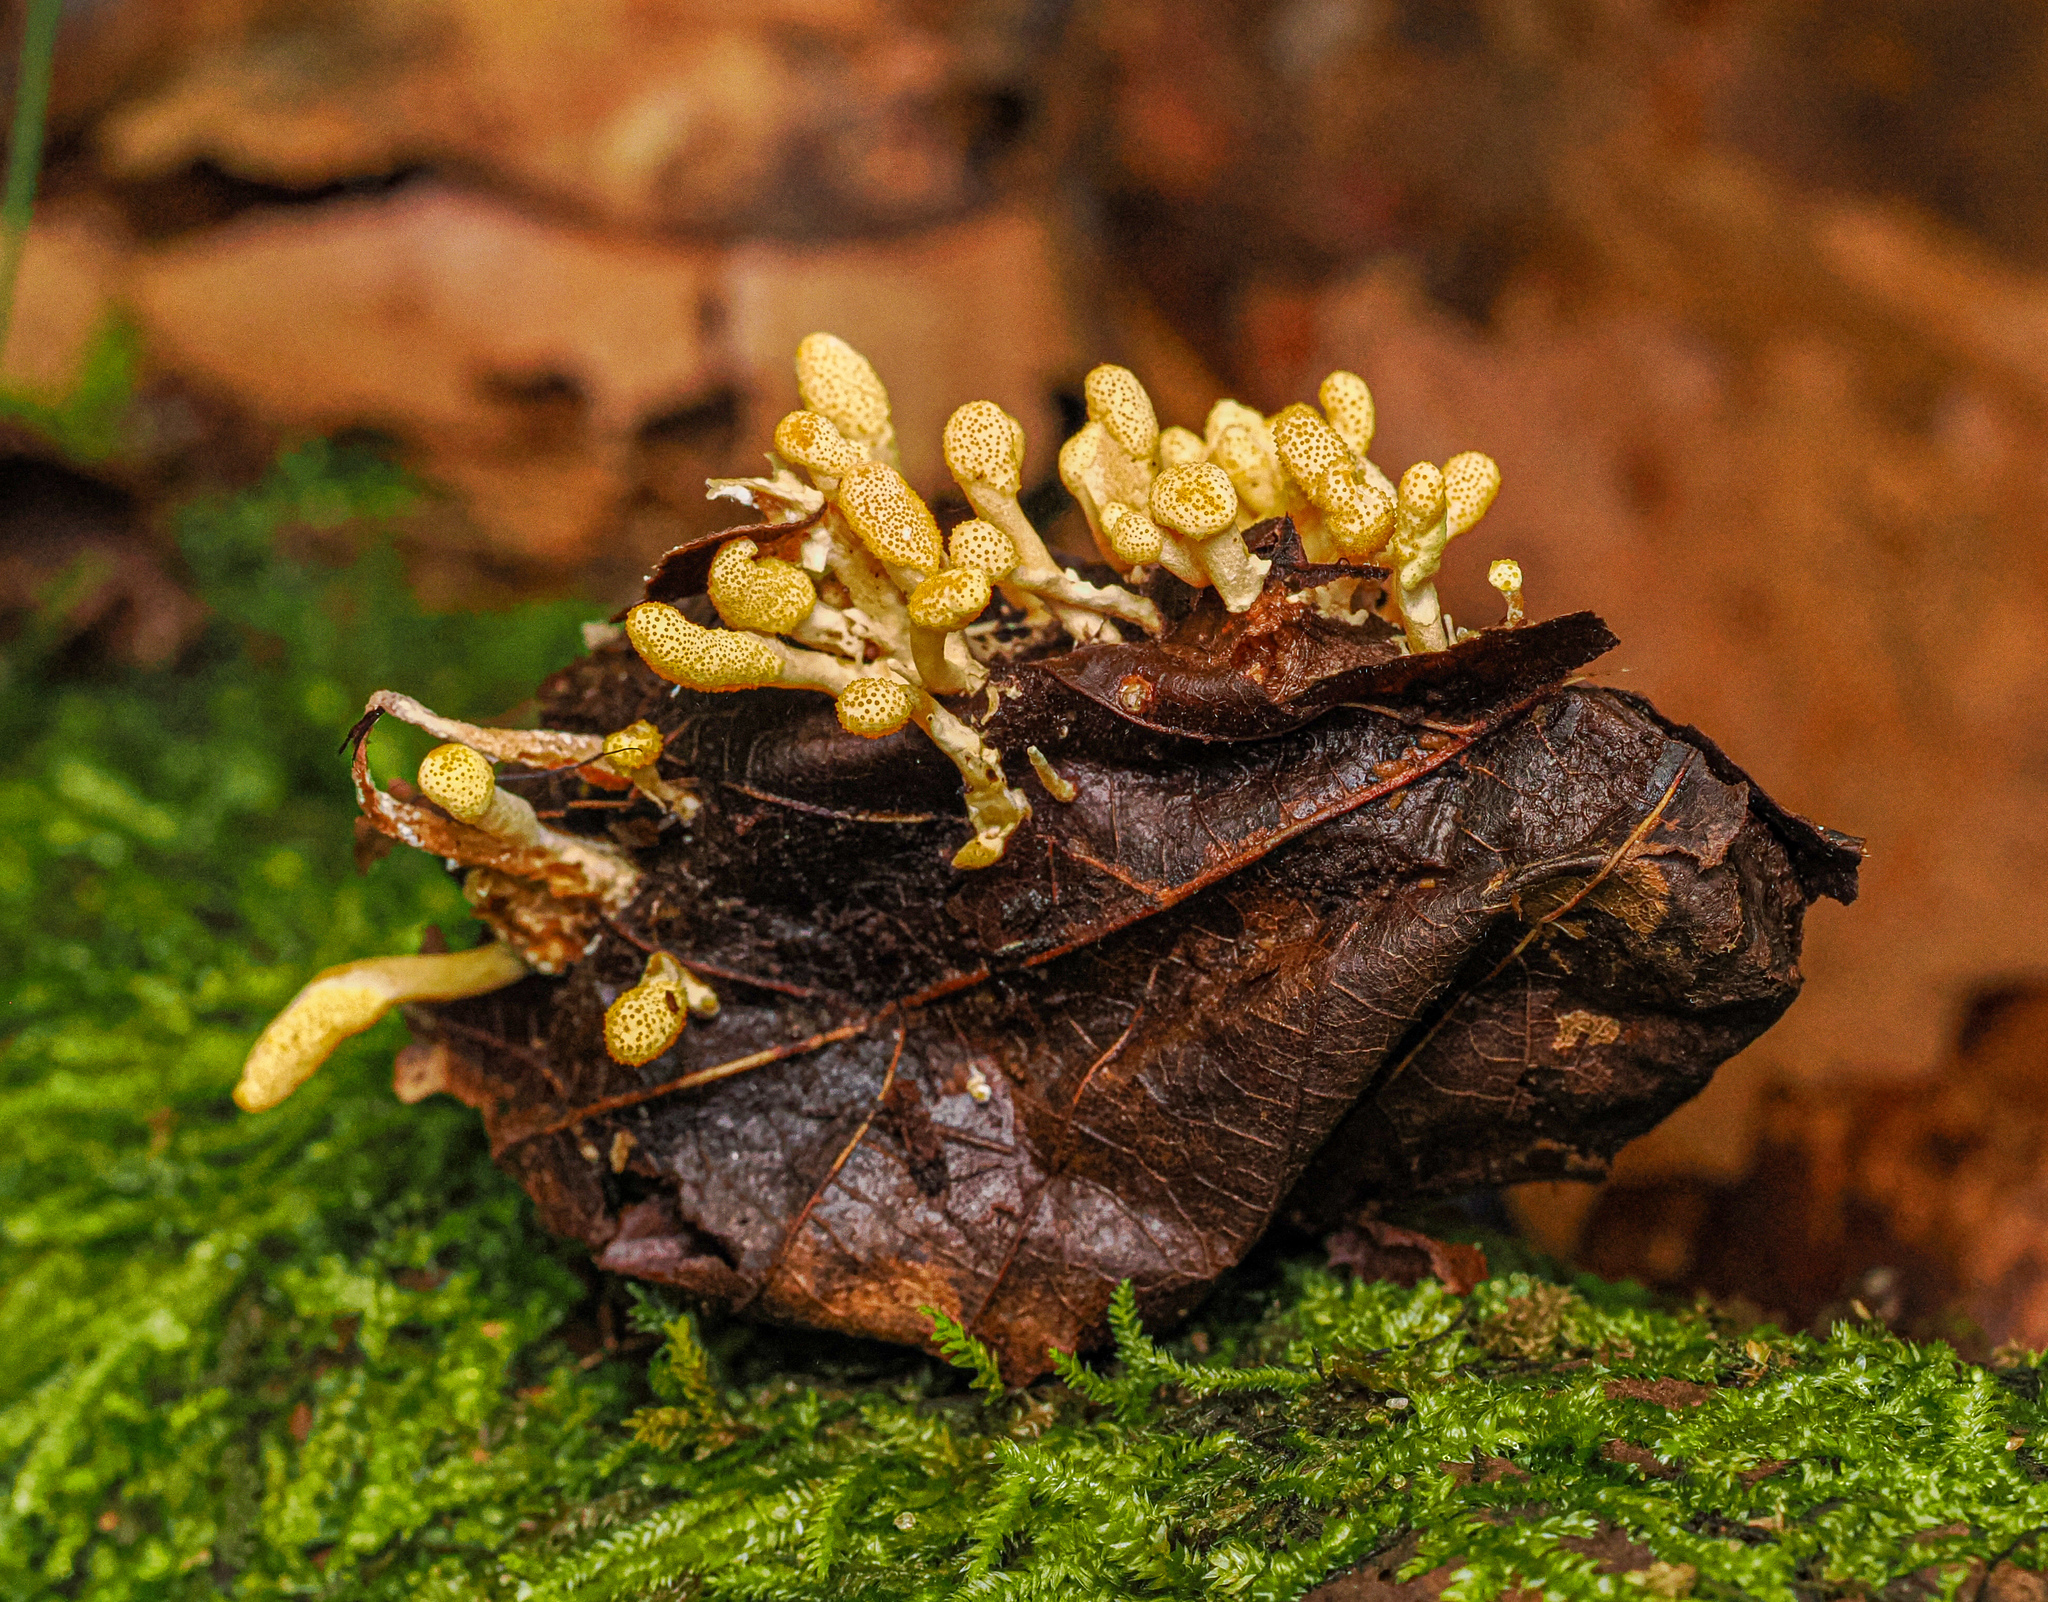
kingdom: Fungi
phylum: Ascomycota
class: Sordariomycetes
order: Hypocreales
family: Cordycipitaceae
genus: Cordyceps
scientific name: Cordyceps militaris
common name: Scarlet caterpillar fungus
